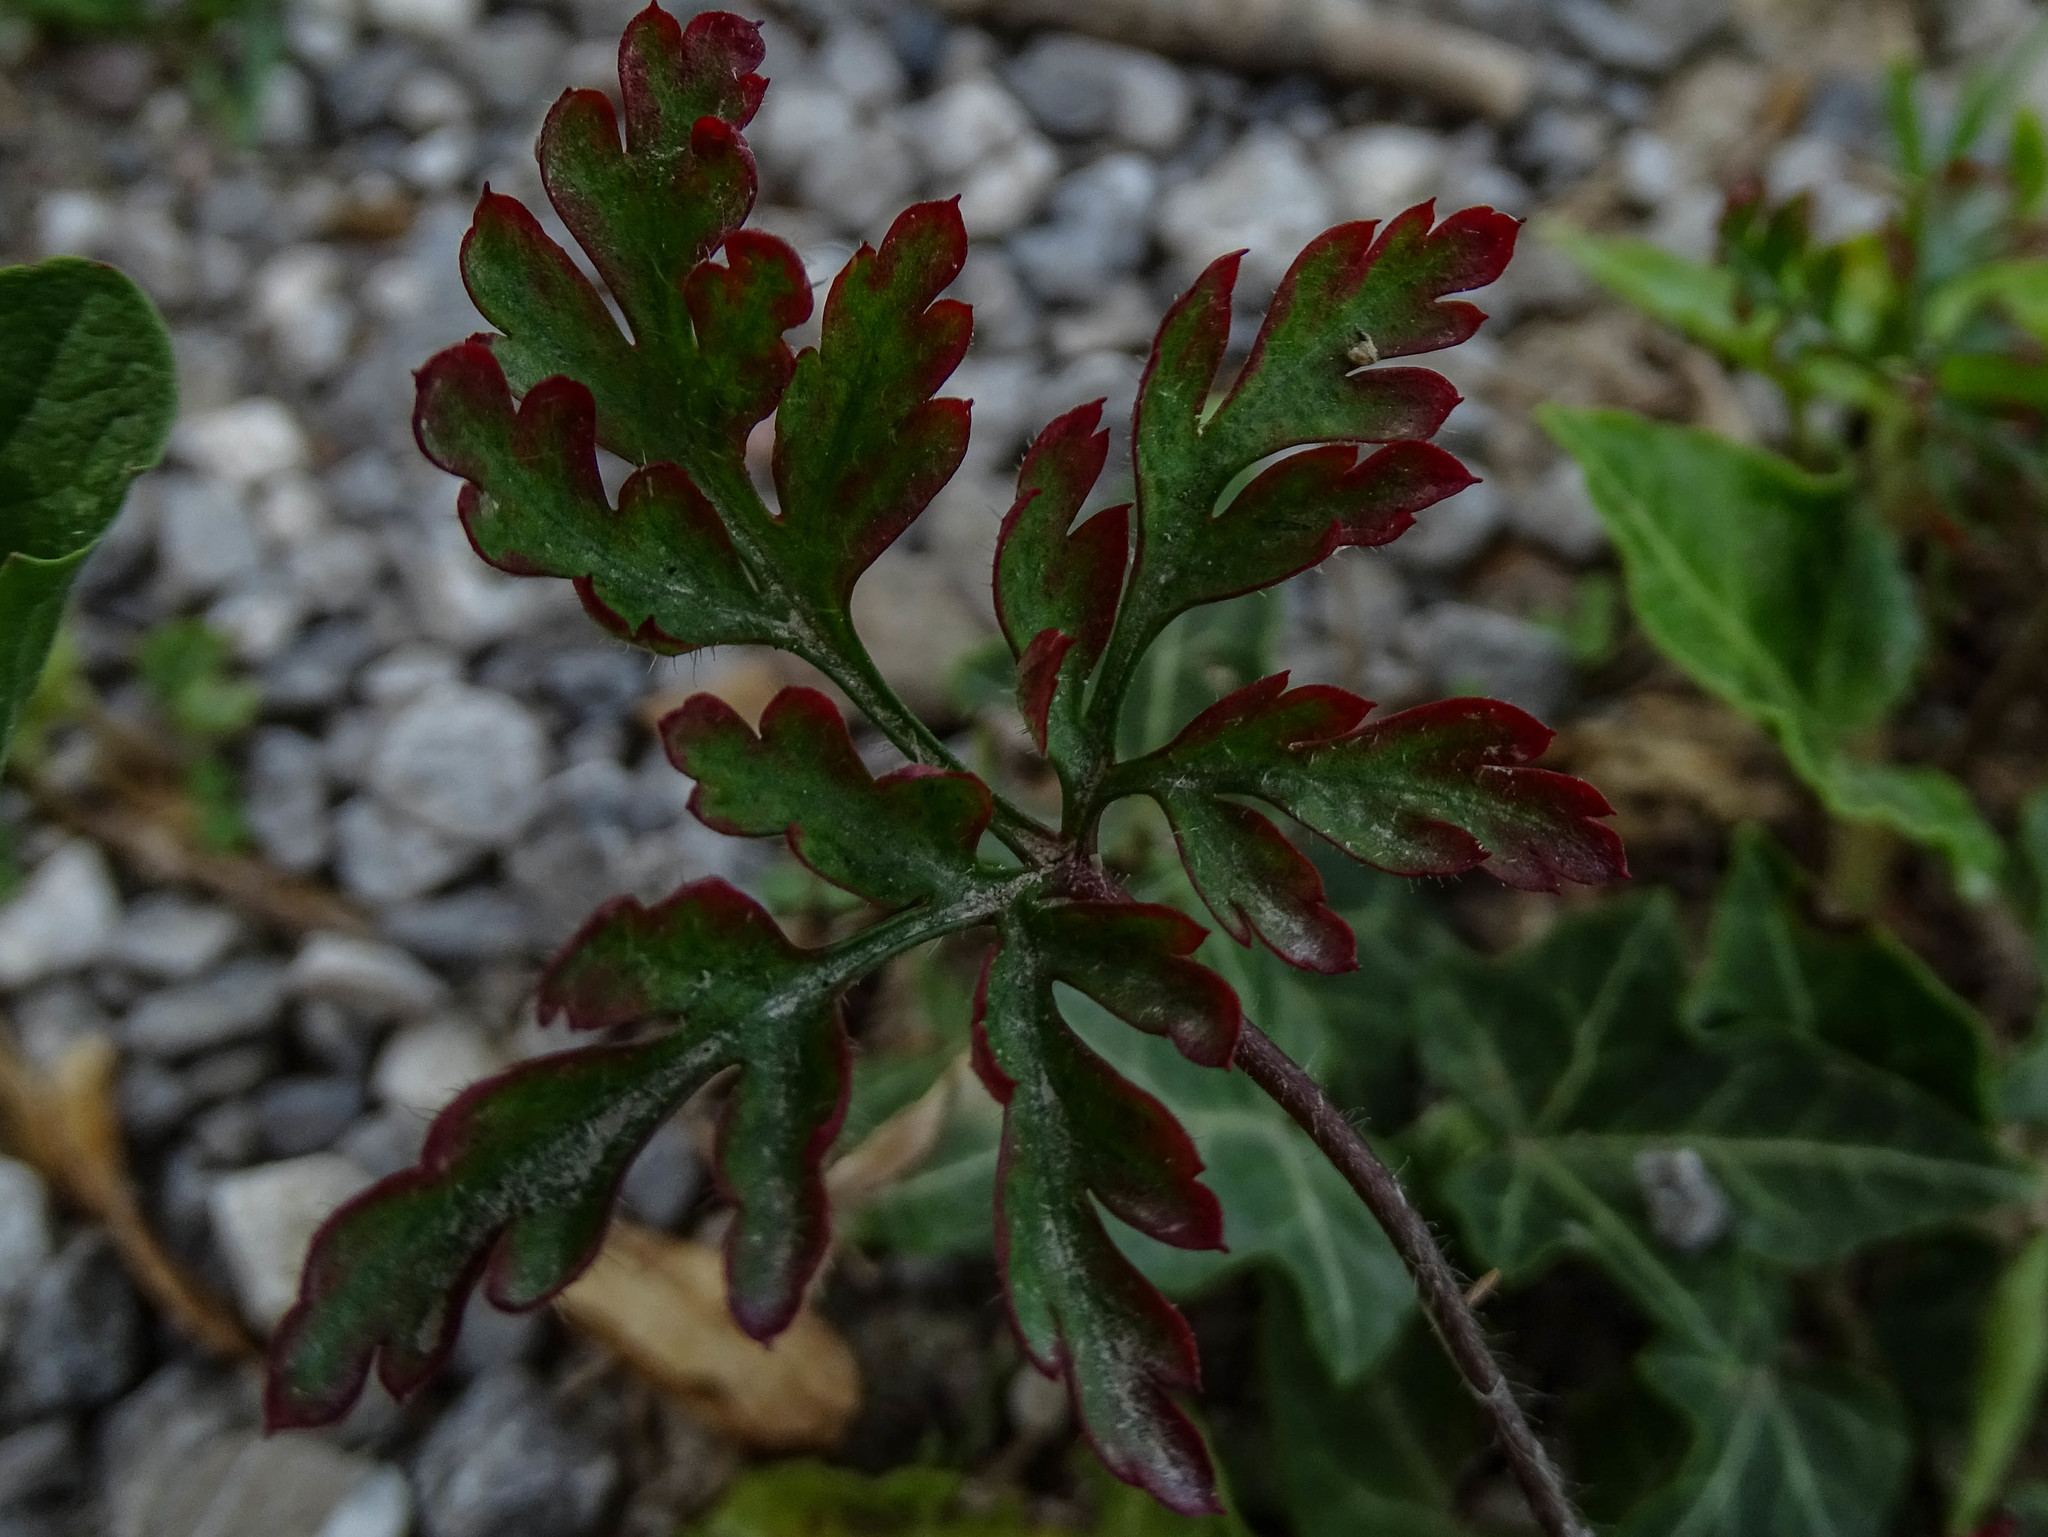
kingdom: Plantae
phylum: Tracheophyta
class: Magnoliopsida
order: Geraniales
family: Geraniaceae
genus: Geranium
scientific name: Geranium robertianum
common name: Herb-robert
